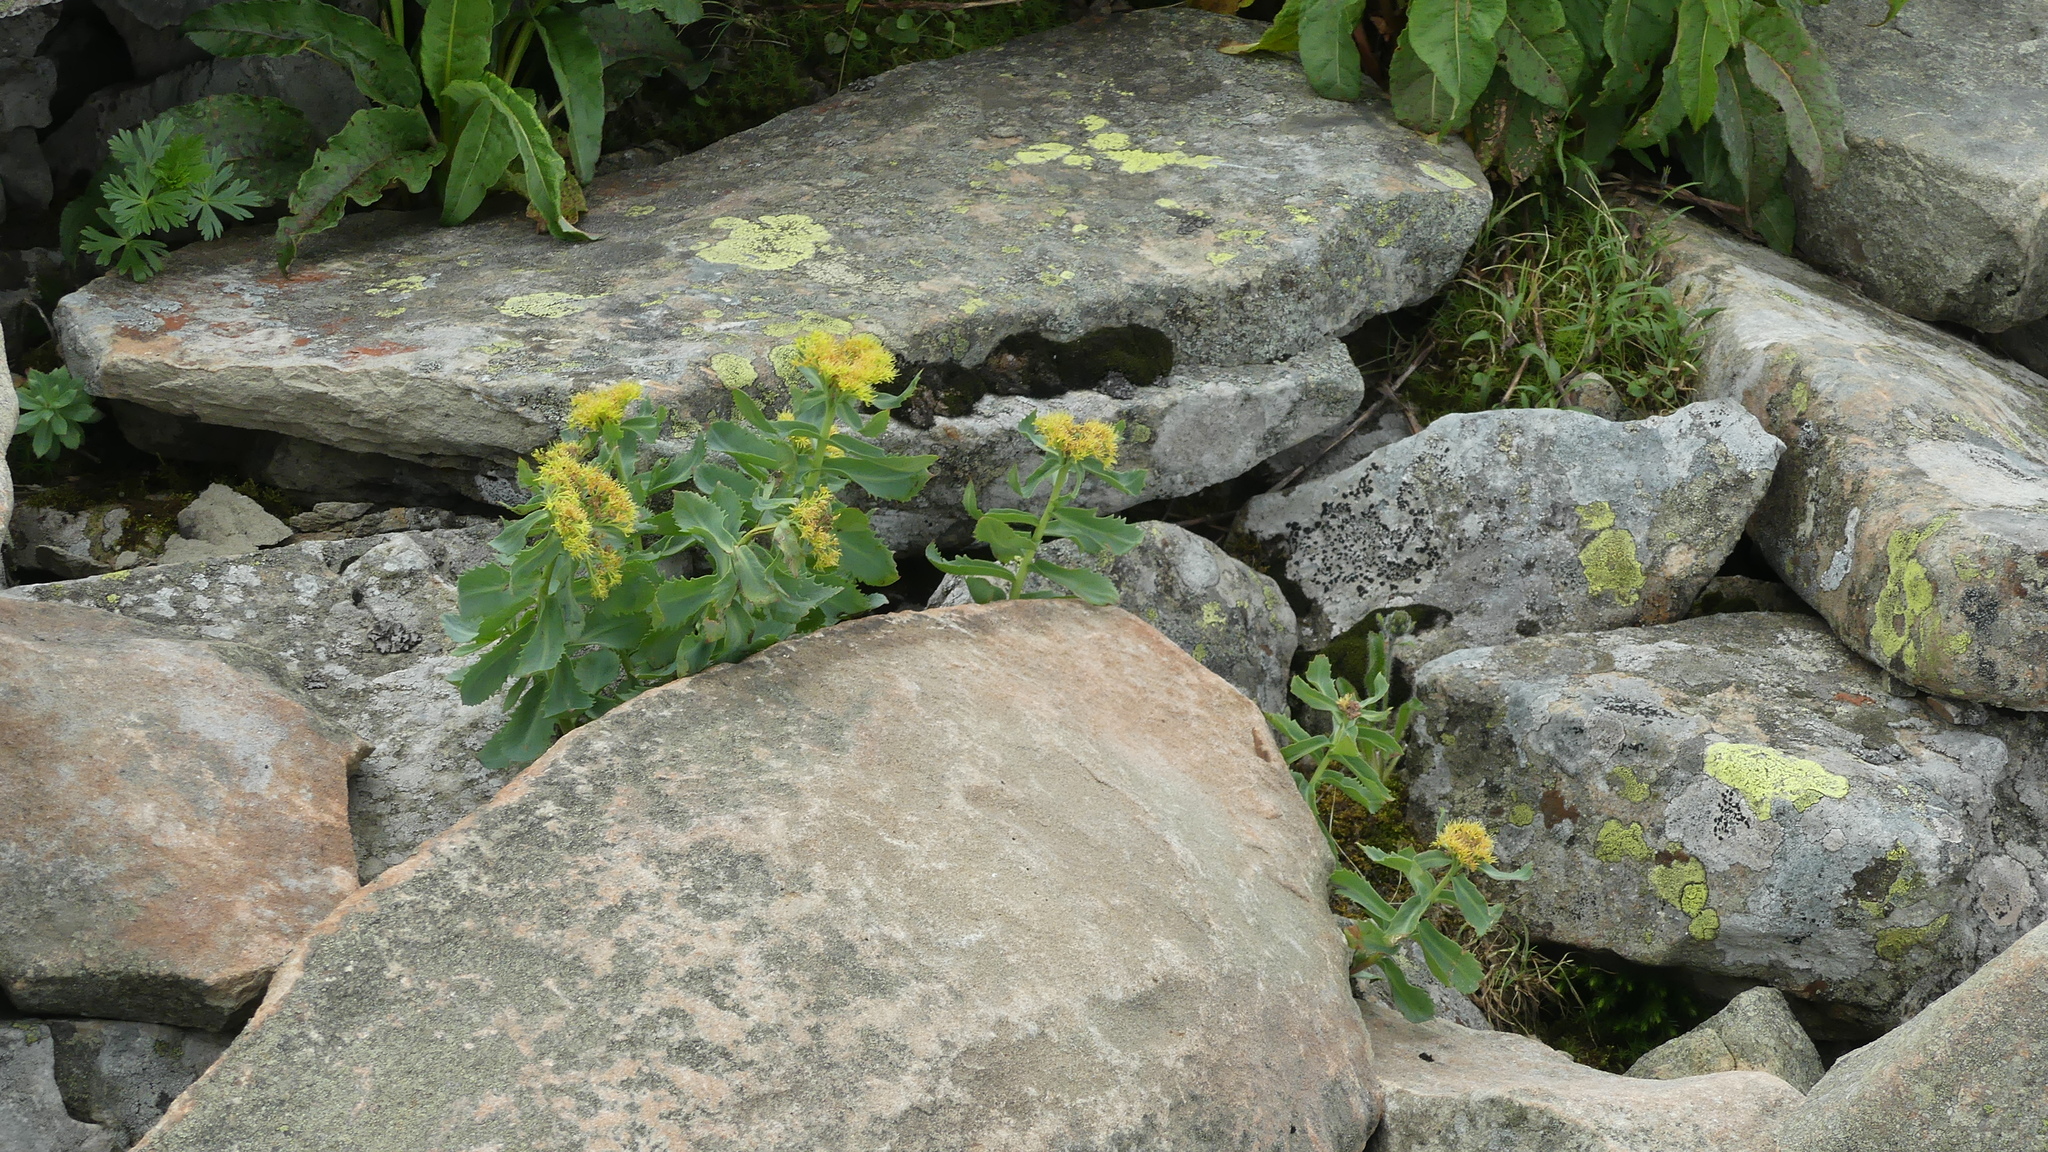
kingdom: Plantae
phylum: Tracheophyta
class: Magnoliopsida
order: Saxifragales
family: Crassulaceae
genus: Rhodiola
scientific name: Rhodiola rosea
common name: Roseroot
